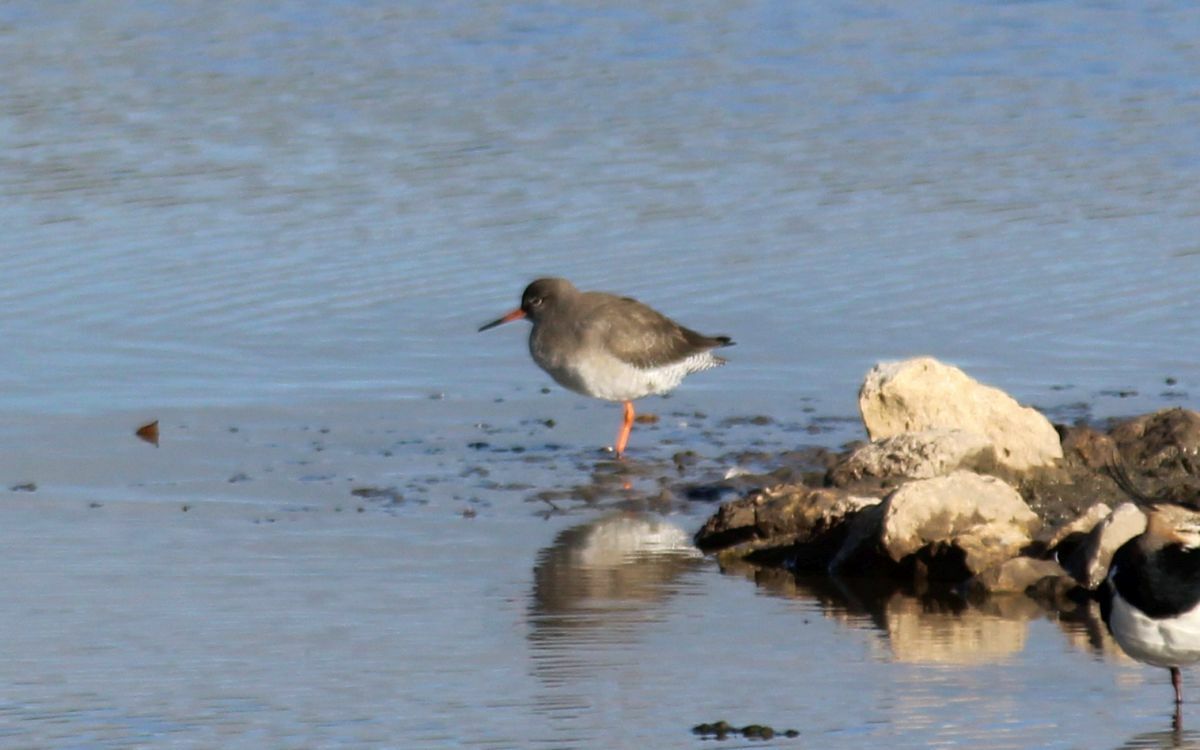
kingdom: Animalia
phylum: Chordata
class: Aves
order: Charadriiformes
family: Scolopacidae
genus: Tringa
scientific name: Tringa totanus
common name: Common redshank
